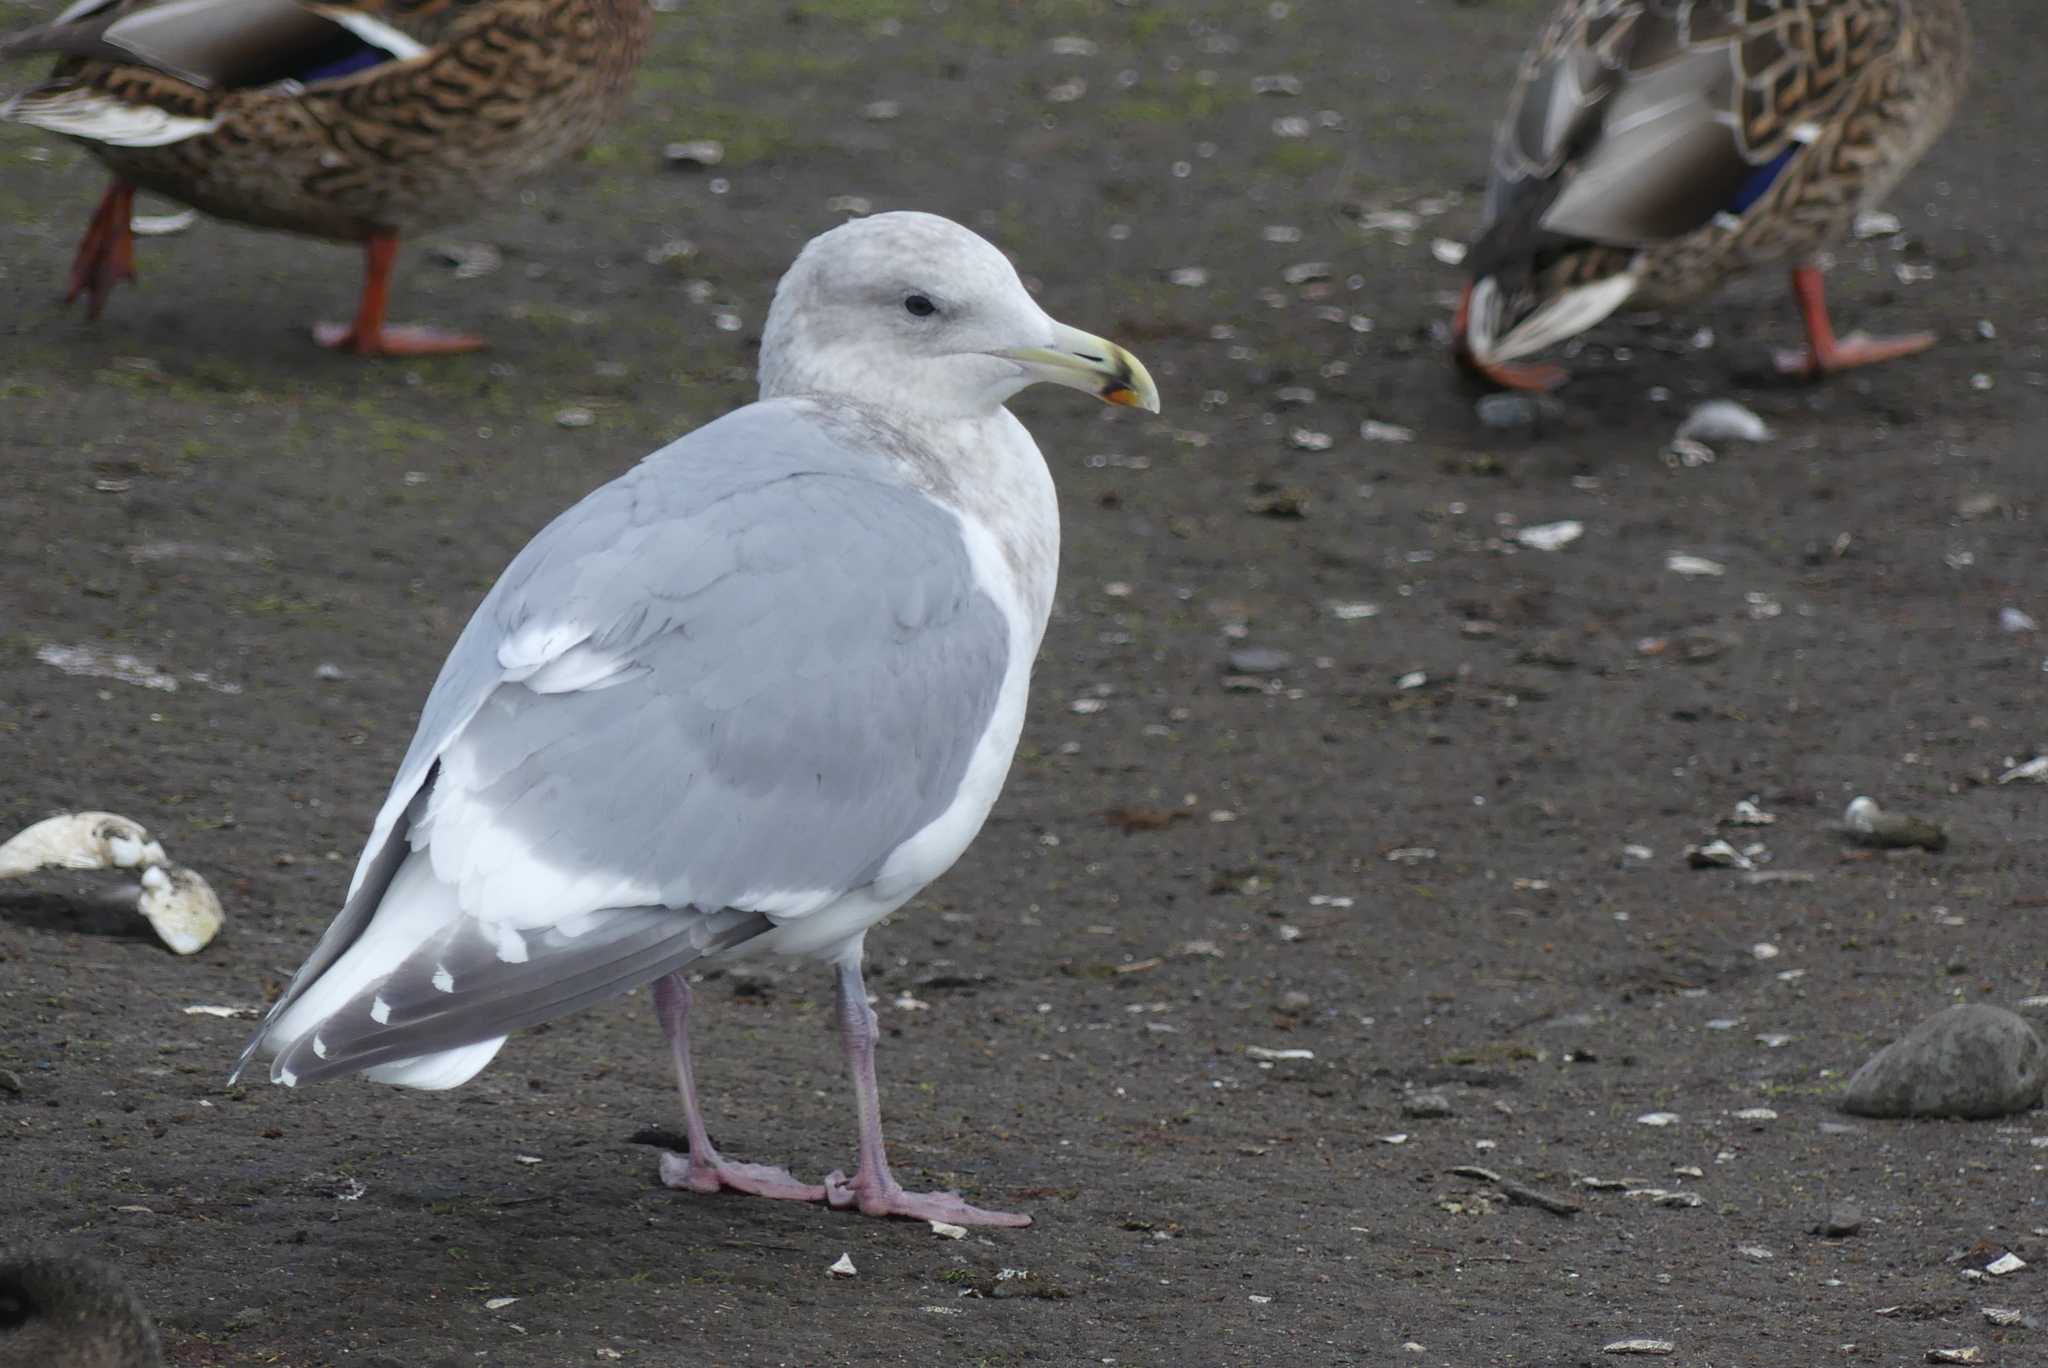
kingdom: Animalia
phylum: Chordata
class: Aves
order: Charadriiformes
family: Laridae
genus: Larus
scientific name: Larus glaucescens
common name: Glaucous-winged gull
